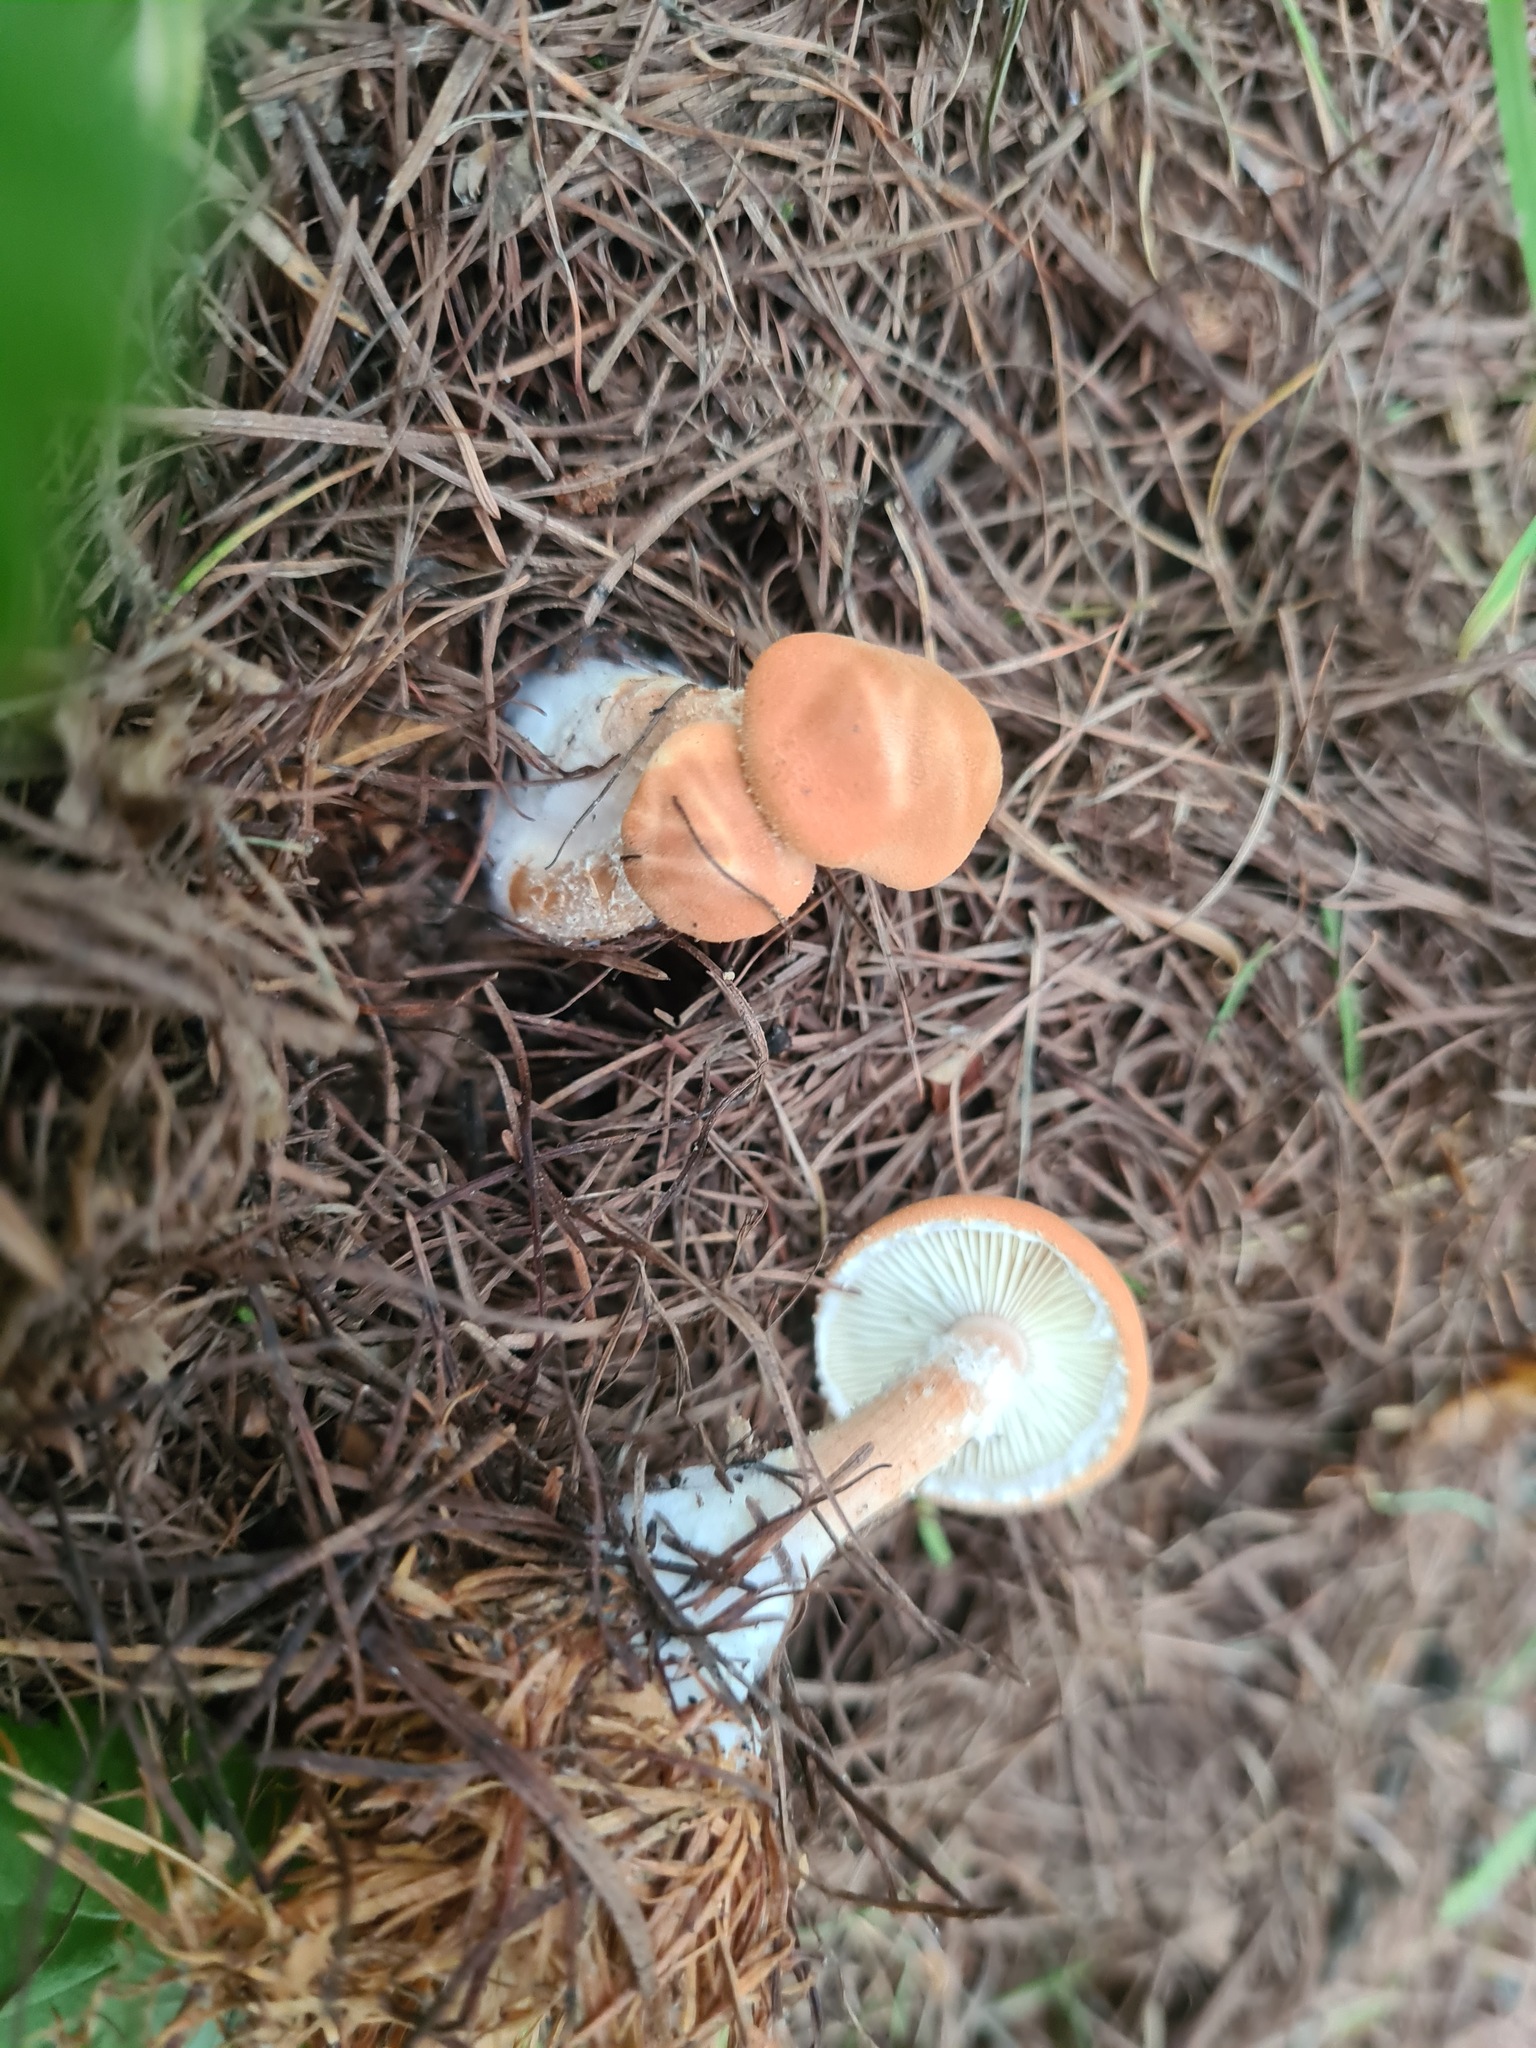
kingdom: Fungi
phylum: Basidiomycota
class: Agaricomycetes
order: Agaricales
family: Agaricaceae
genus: Cystodermella
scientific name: Cystodermella cinnabarina
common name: Cinnabar powdercap
